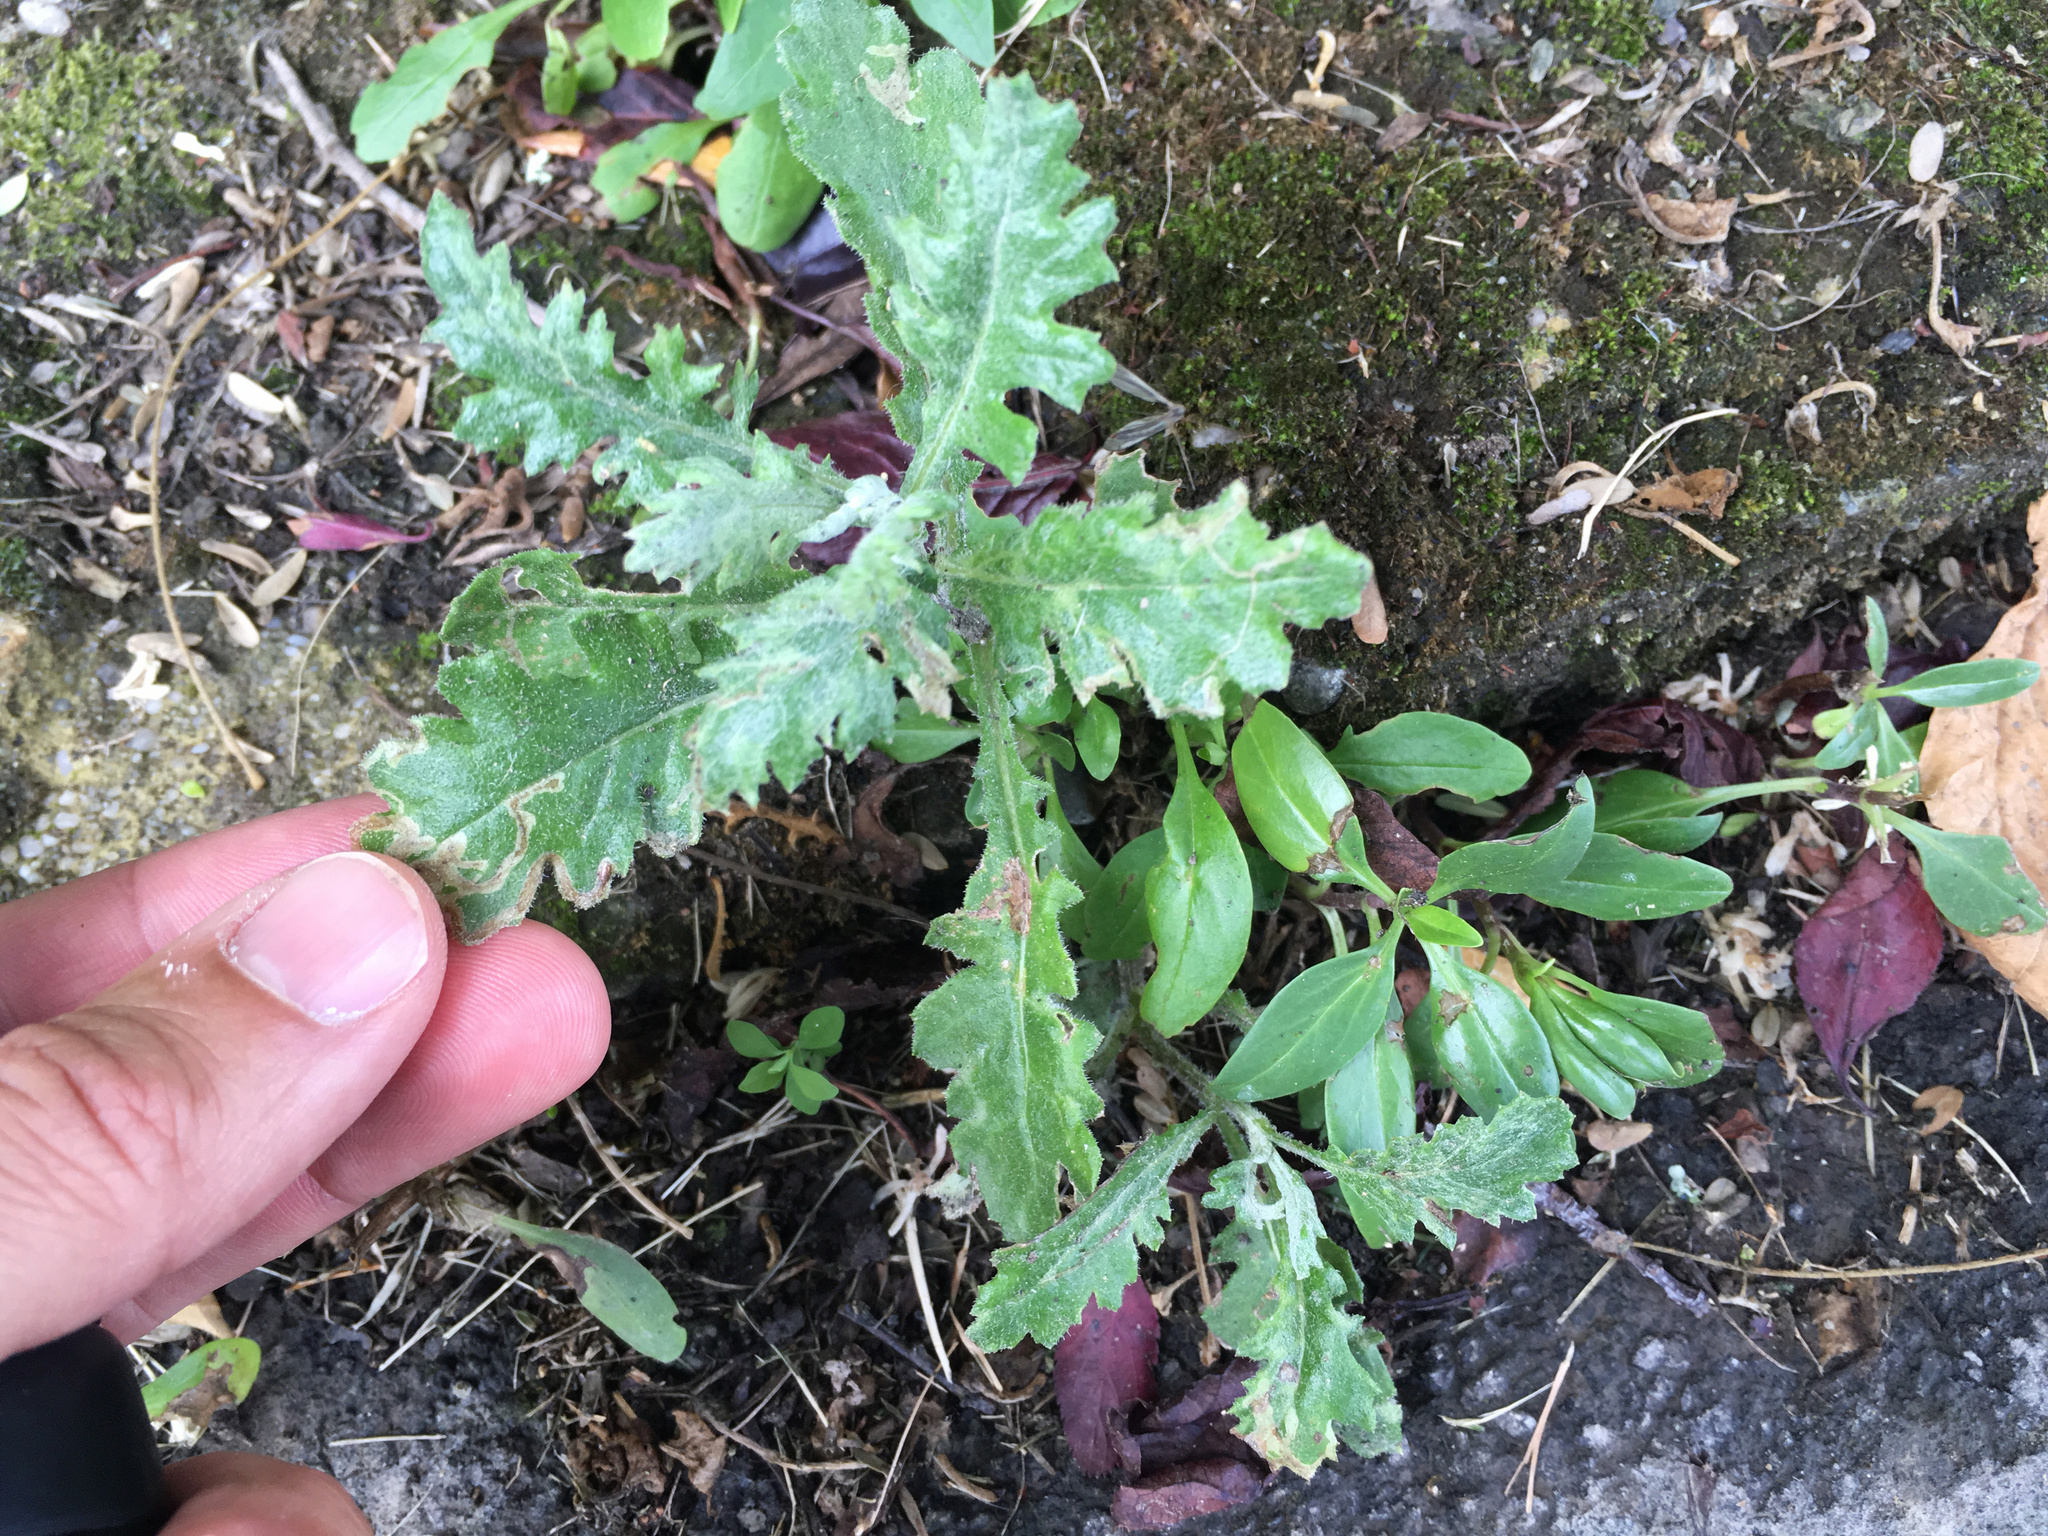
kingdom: Plantae
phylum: Tracheophyta
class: Magnoliopsida
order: Asterales
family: Asteraceae
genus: Senecio
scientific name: Senecio glomeratus
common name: Cutleaf burnweed
